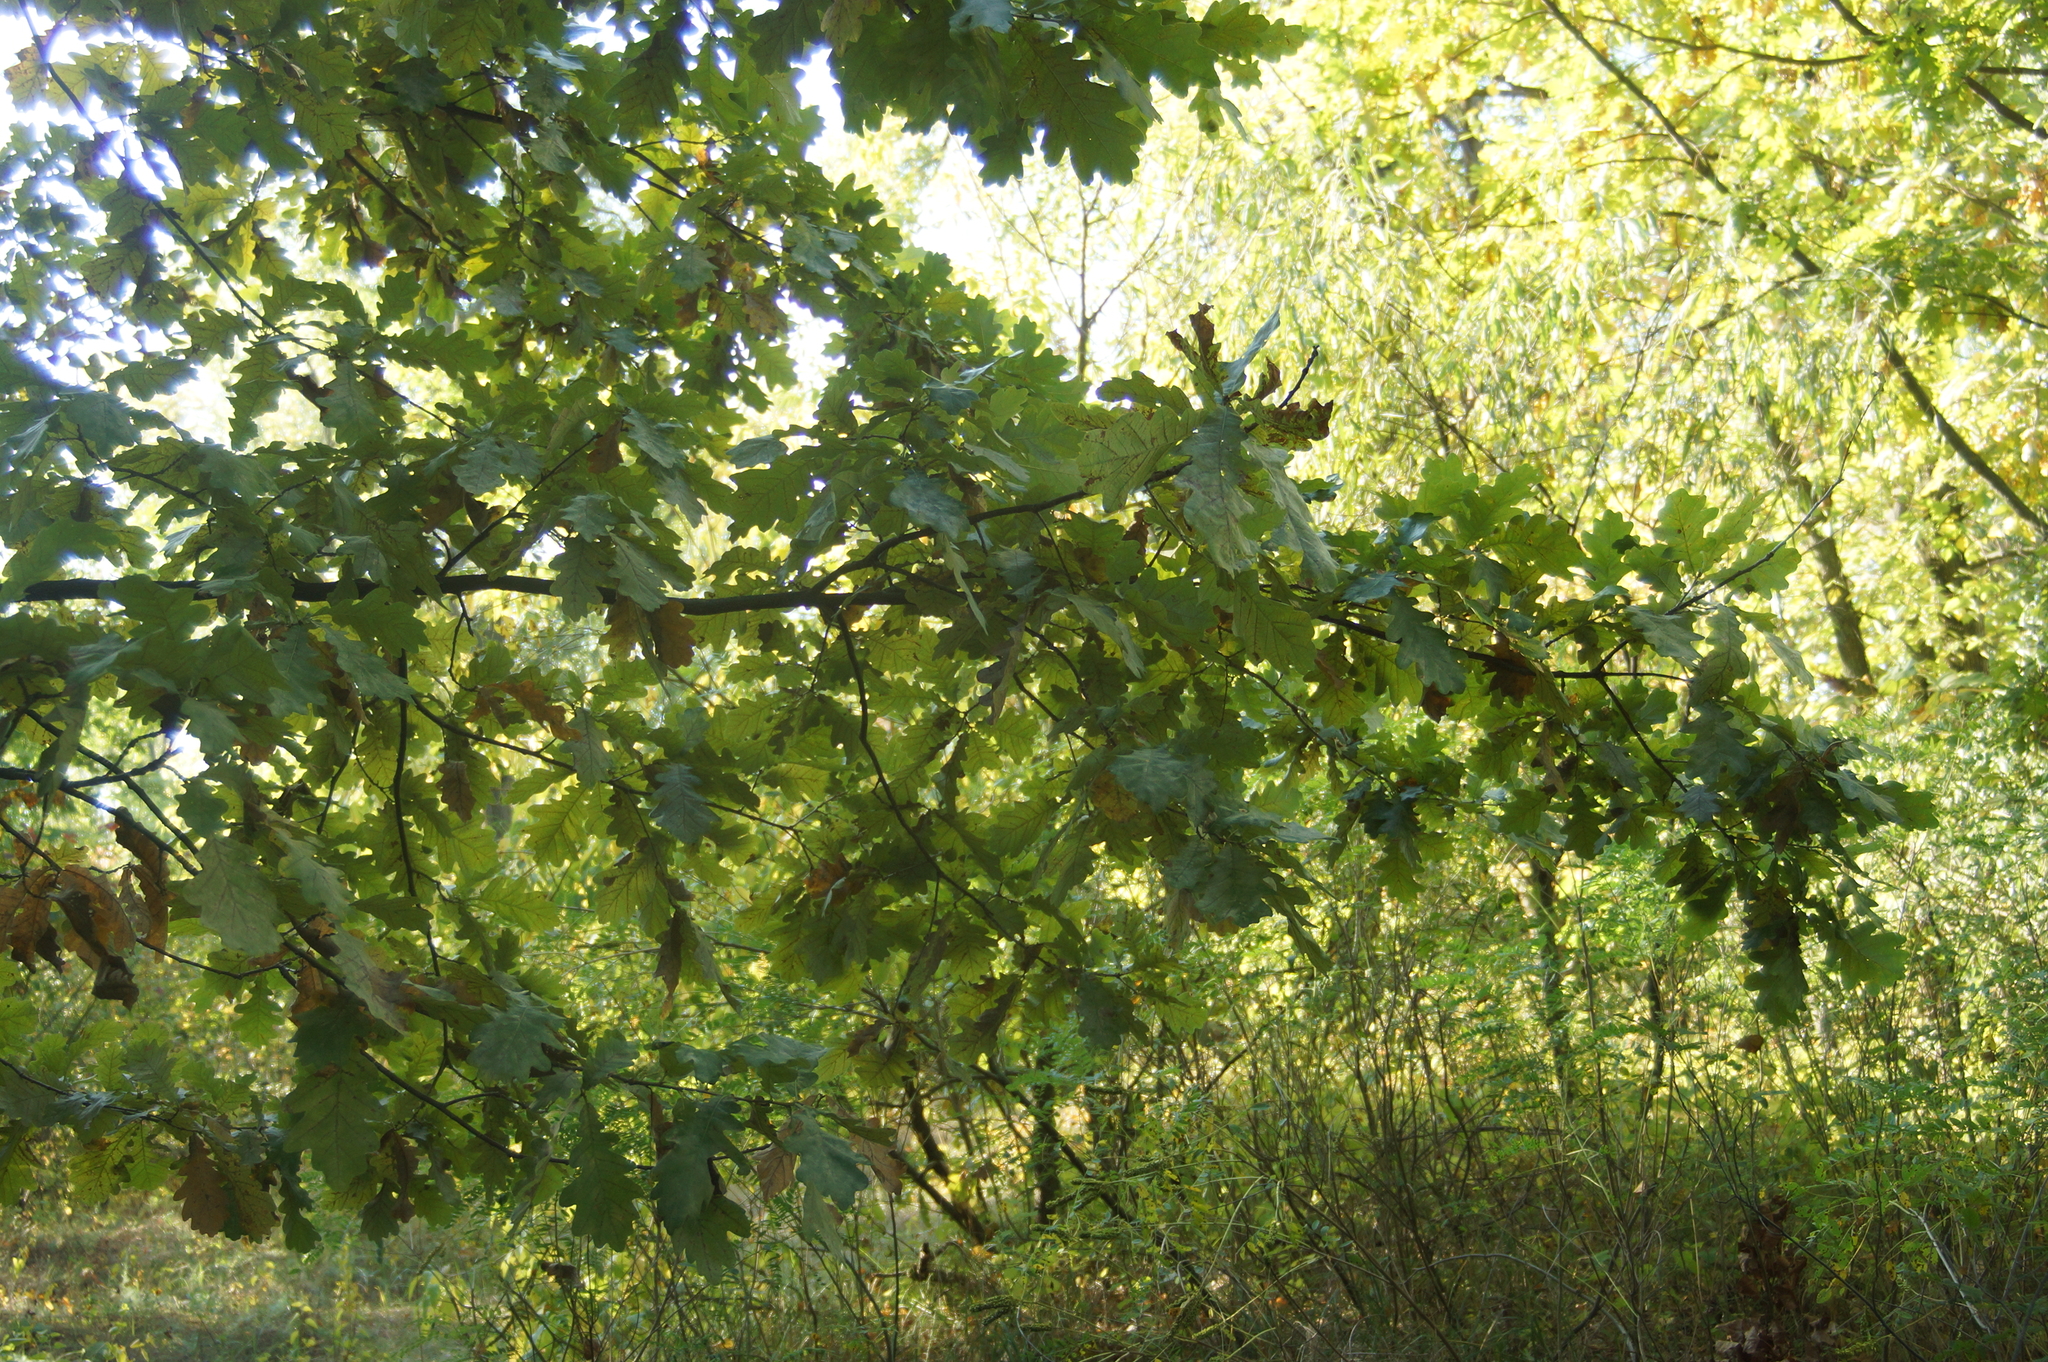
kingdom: Plantae
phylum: Tracheophyta
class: Magnoliopsida
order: Fagales
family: Fagaceae
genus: Quercus
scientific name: Quercus robur
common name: Pedunculate oak
